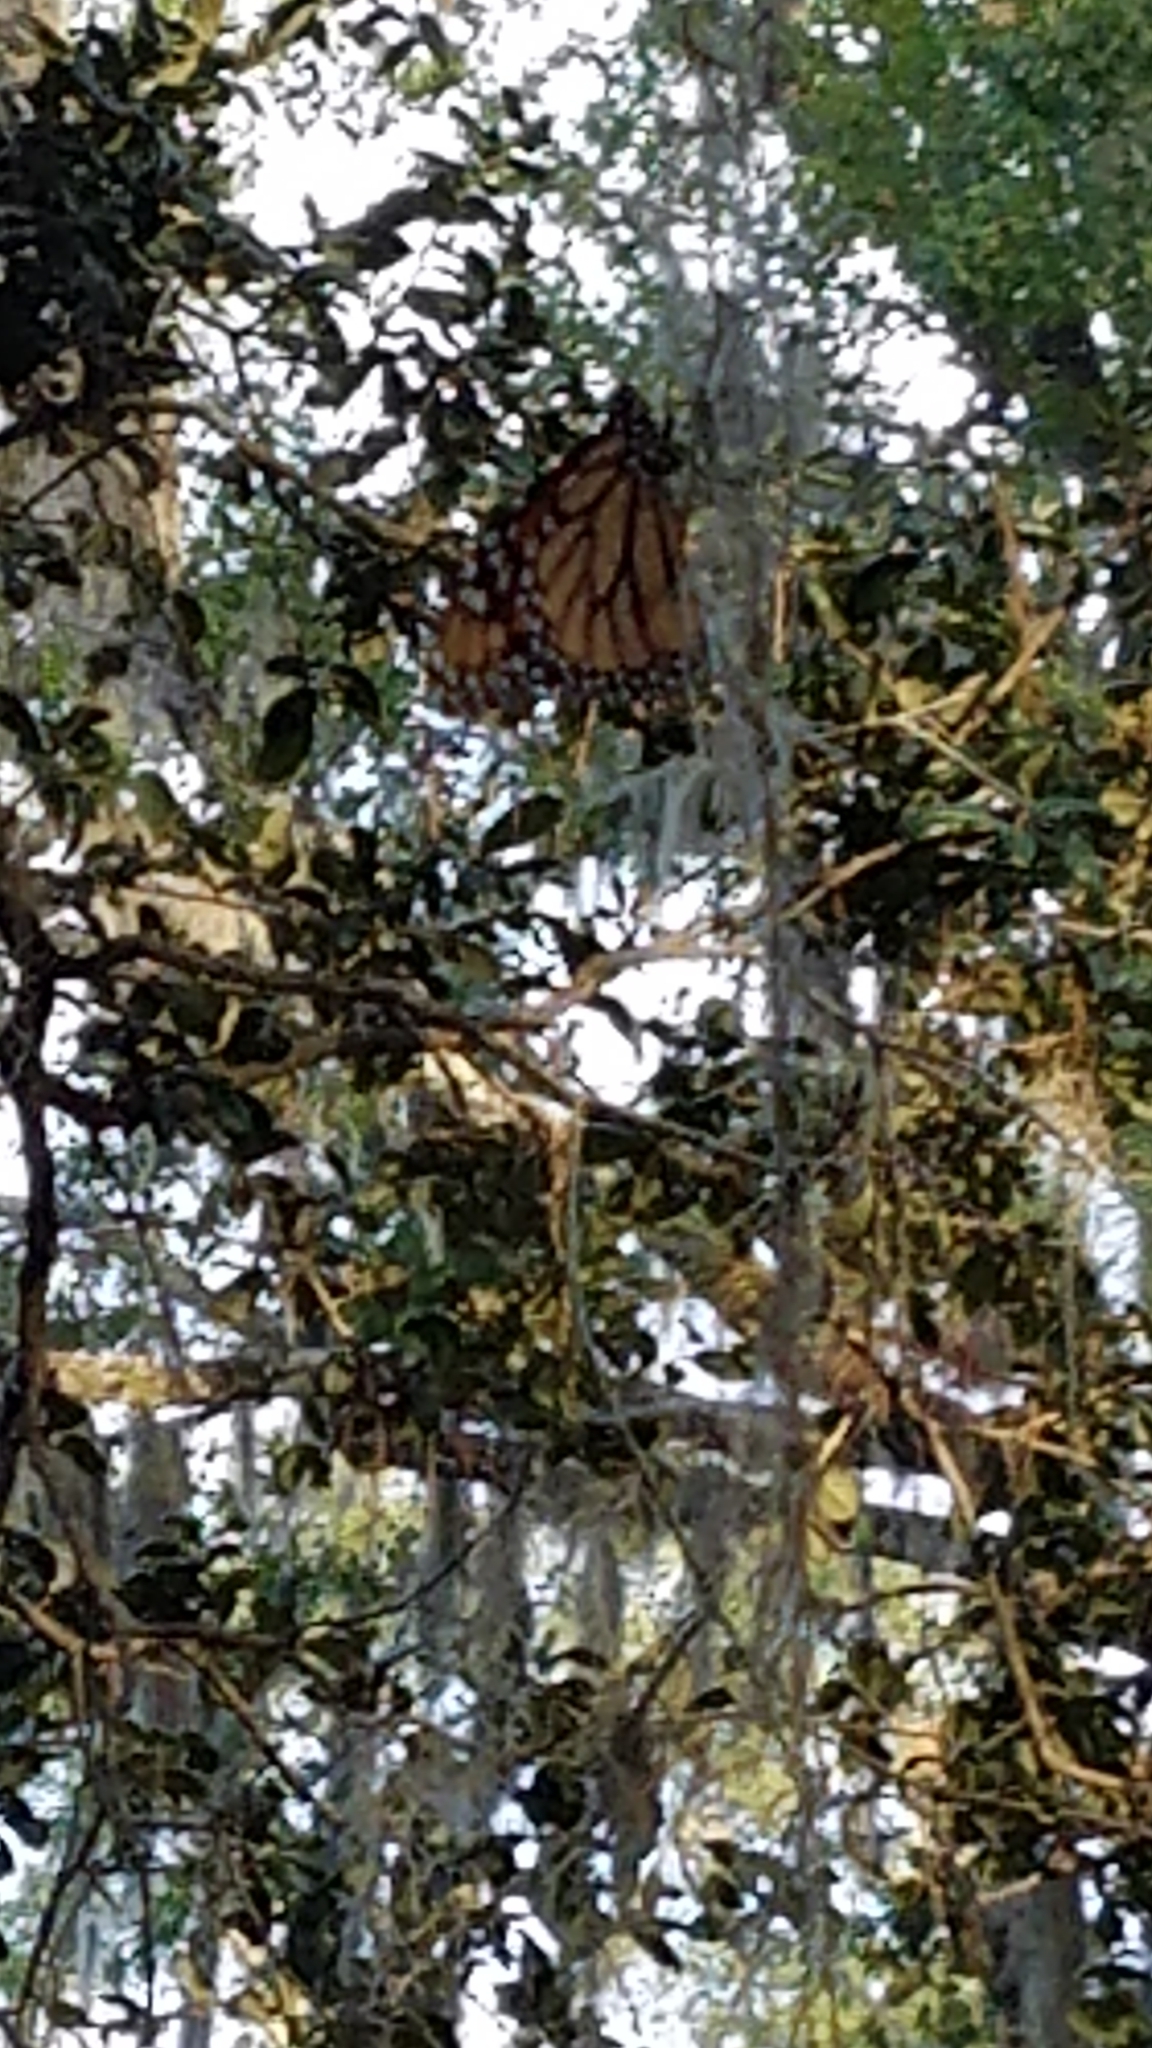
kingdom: Animalia
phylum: Arthropoda
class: Insecta
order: Lepidoptera
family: Nymphalidae
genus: Danaus
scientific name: Danaus plexippus
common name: Monarch
